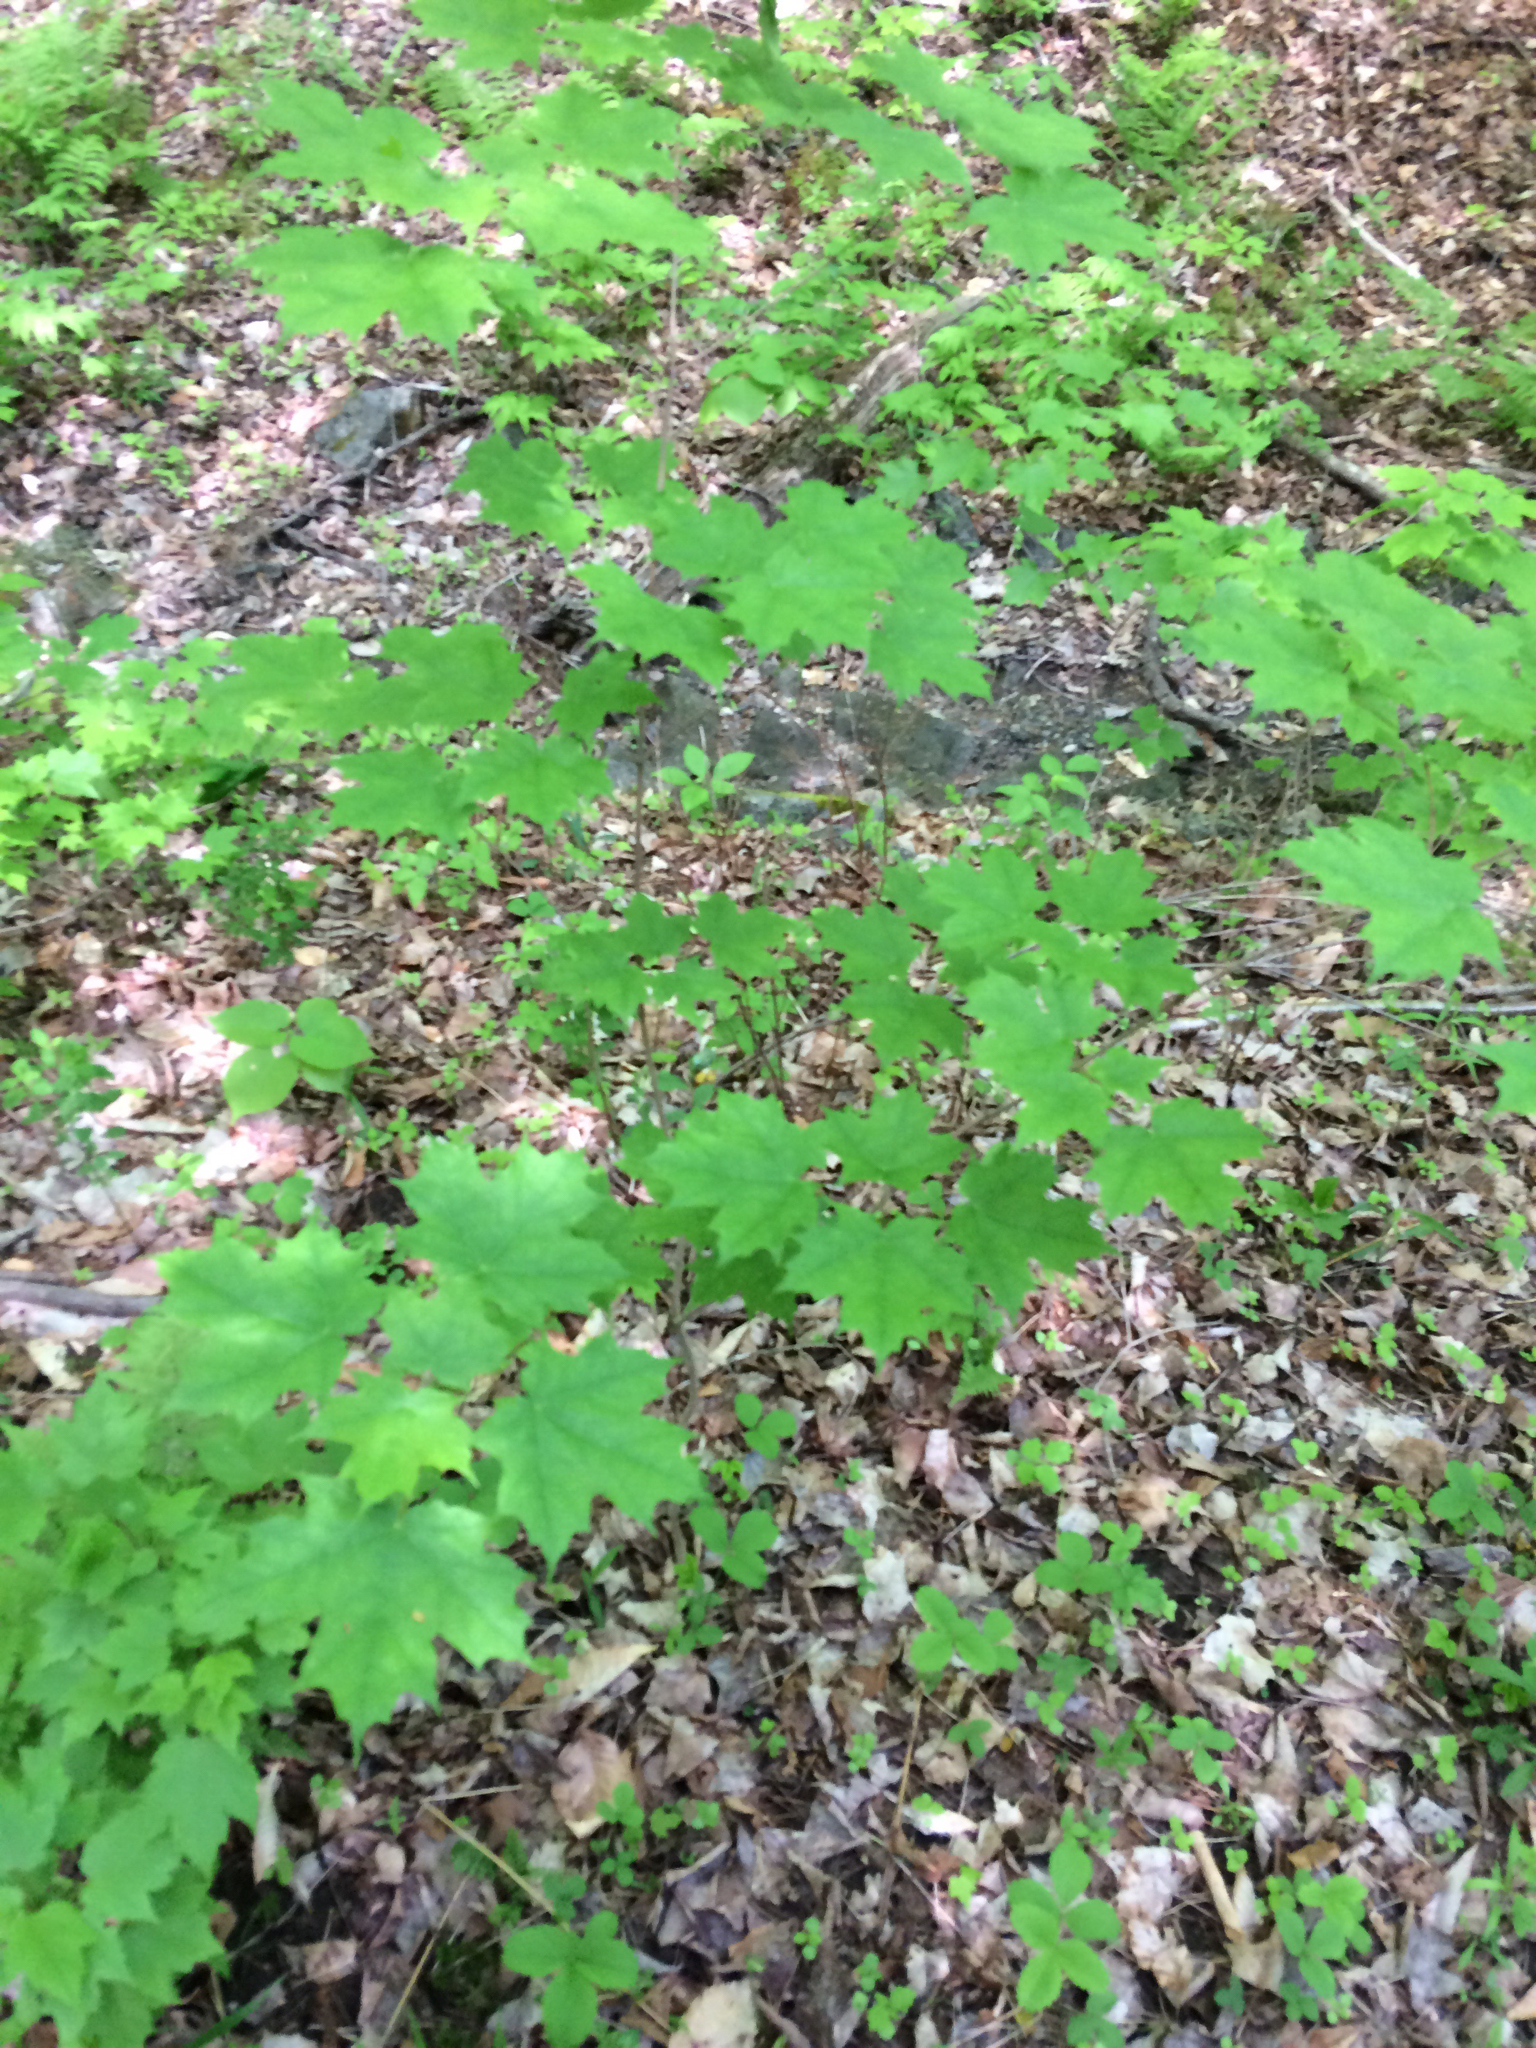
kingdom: Plantae
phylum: Tracheophyta
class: Magnoliopsida
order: Sapindales
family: Sapindaceae
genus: Acer
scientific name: Acer saccharum
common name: Sugar maple
